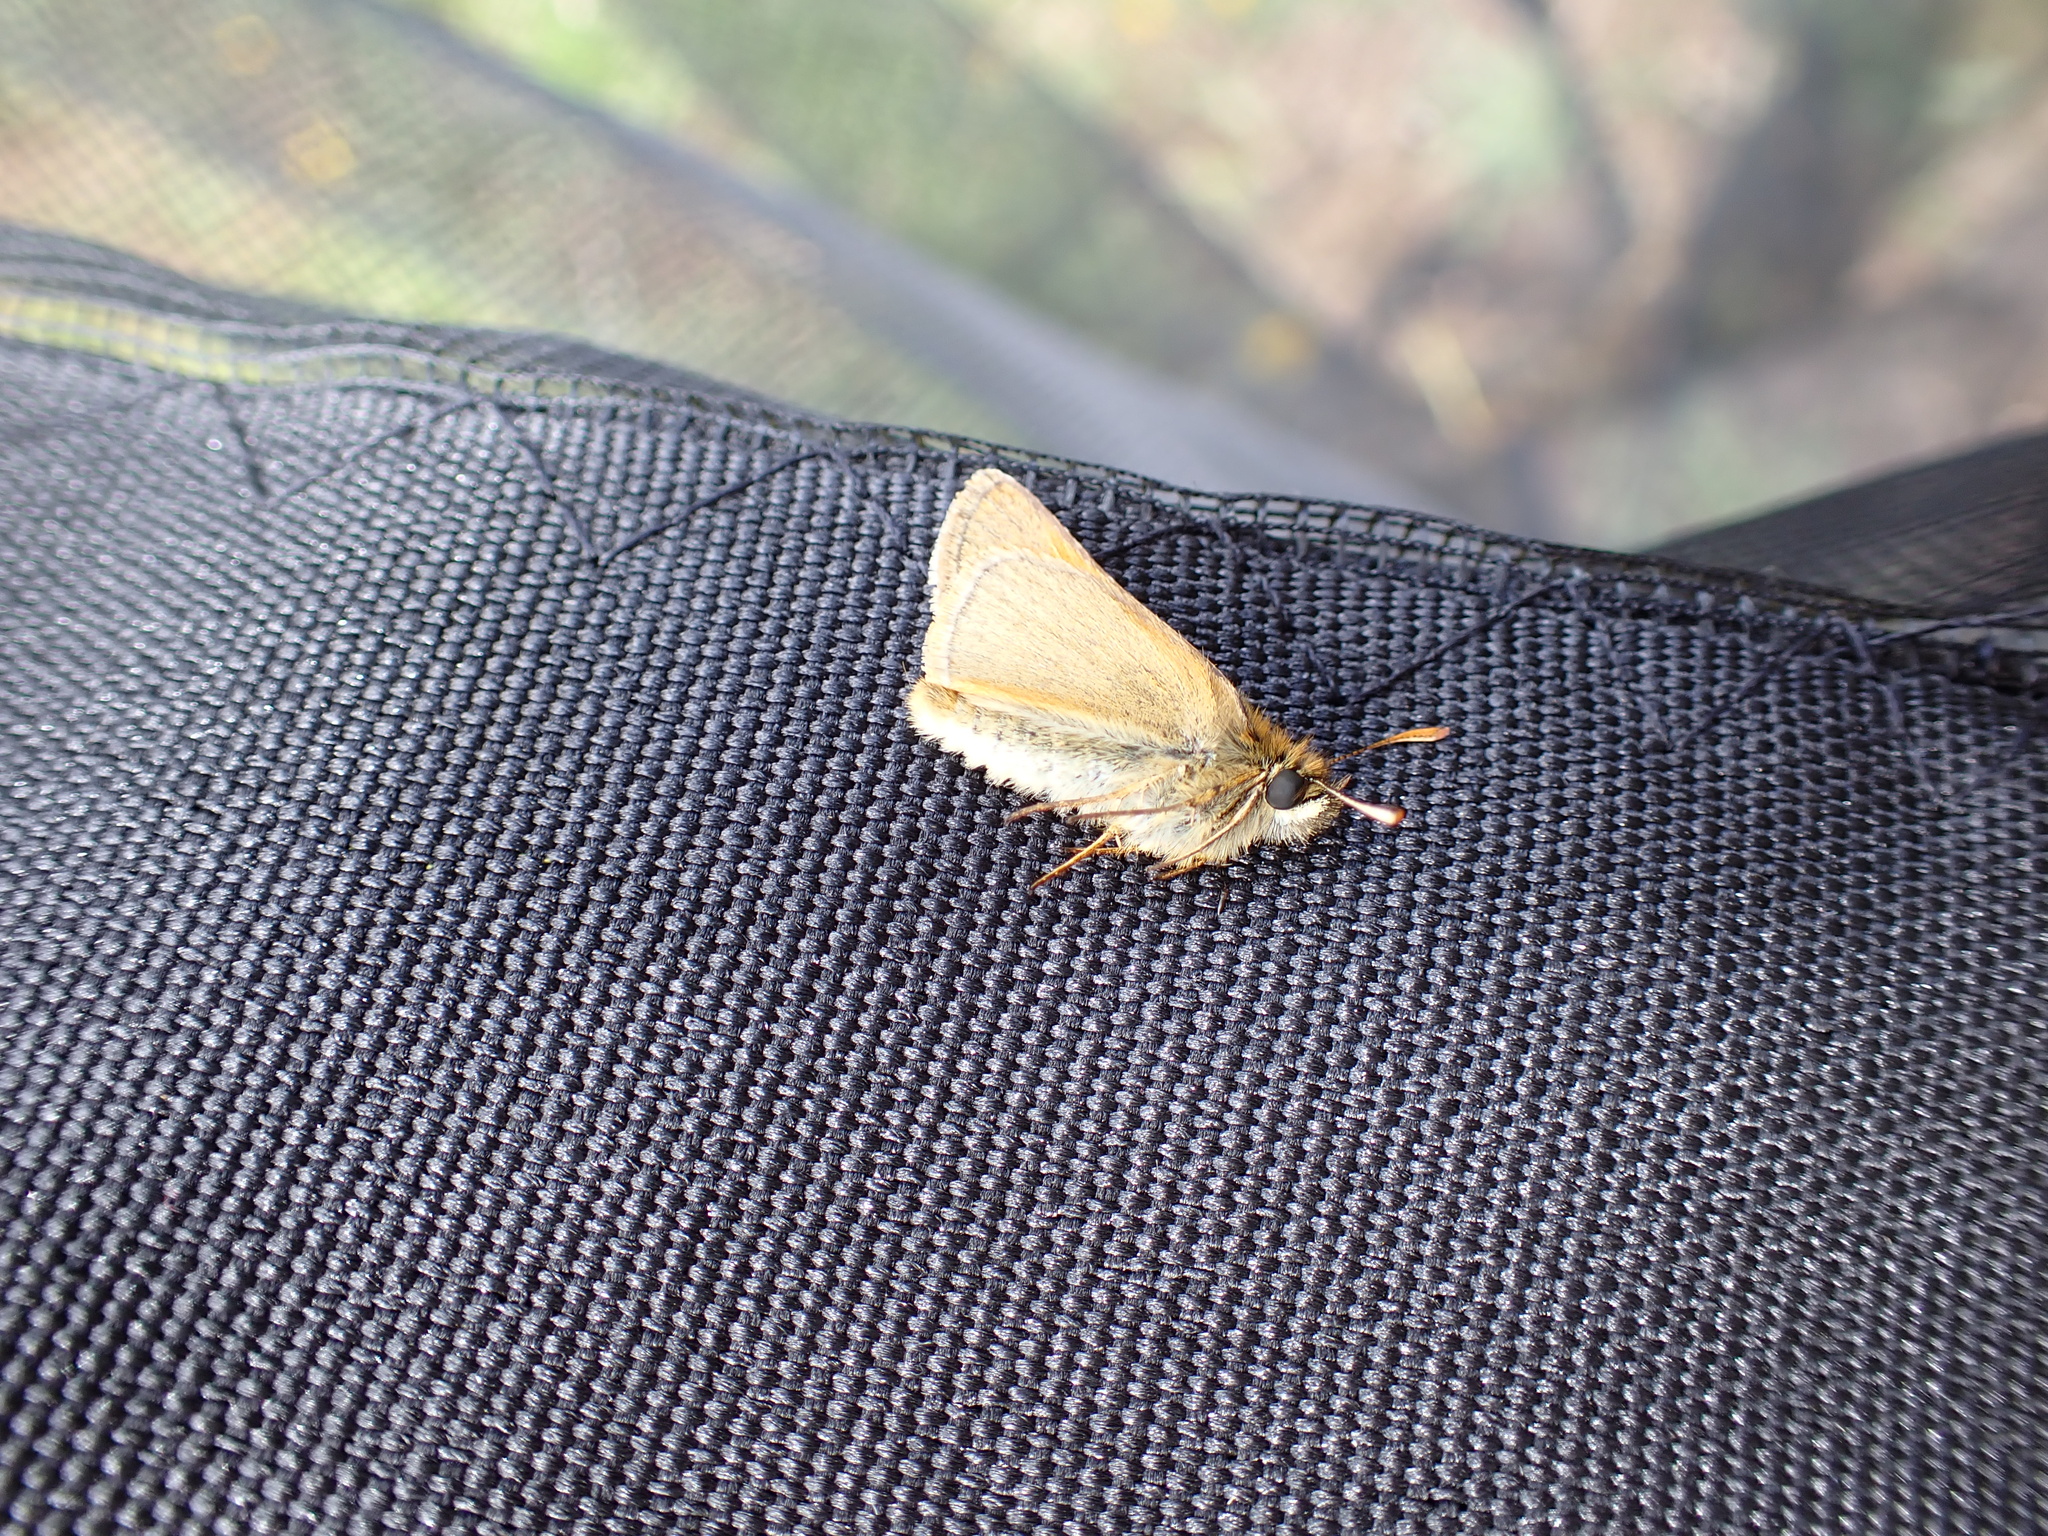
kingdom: Animalia
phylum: Arthropoda
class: Insecta
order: Lepidoptera
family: Hesperiidae
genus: Thymelicus
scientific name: Thymelicus sylvestris
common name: Small skipper
